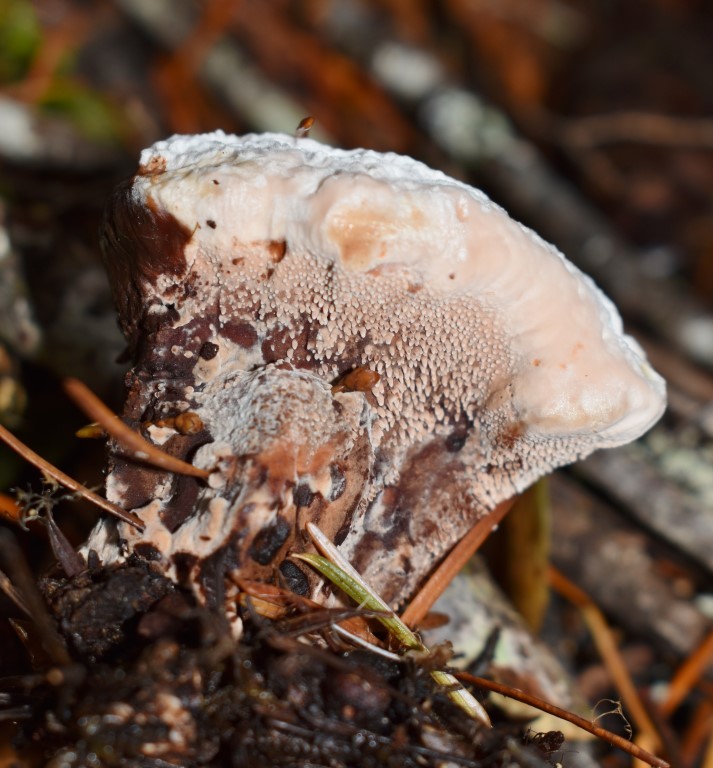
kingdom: Fungi
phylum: Basidiomycota
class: Agaricomycetes
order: Thelephorales
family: Bankeraceae
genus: Hydnellum
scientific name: Hydnellum peckii
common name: Devil's tooth
